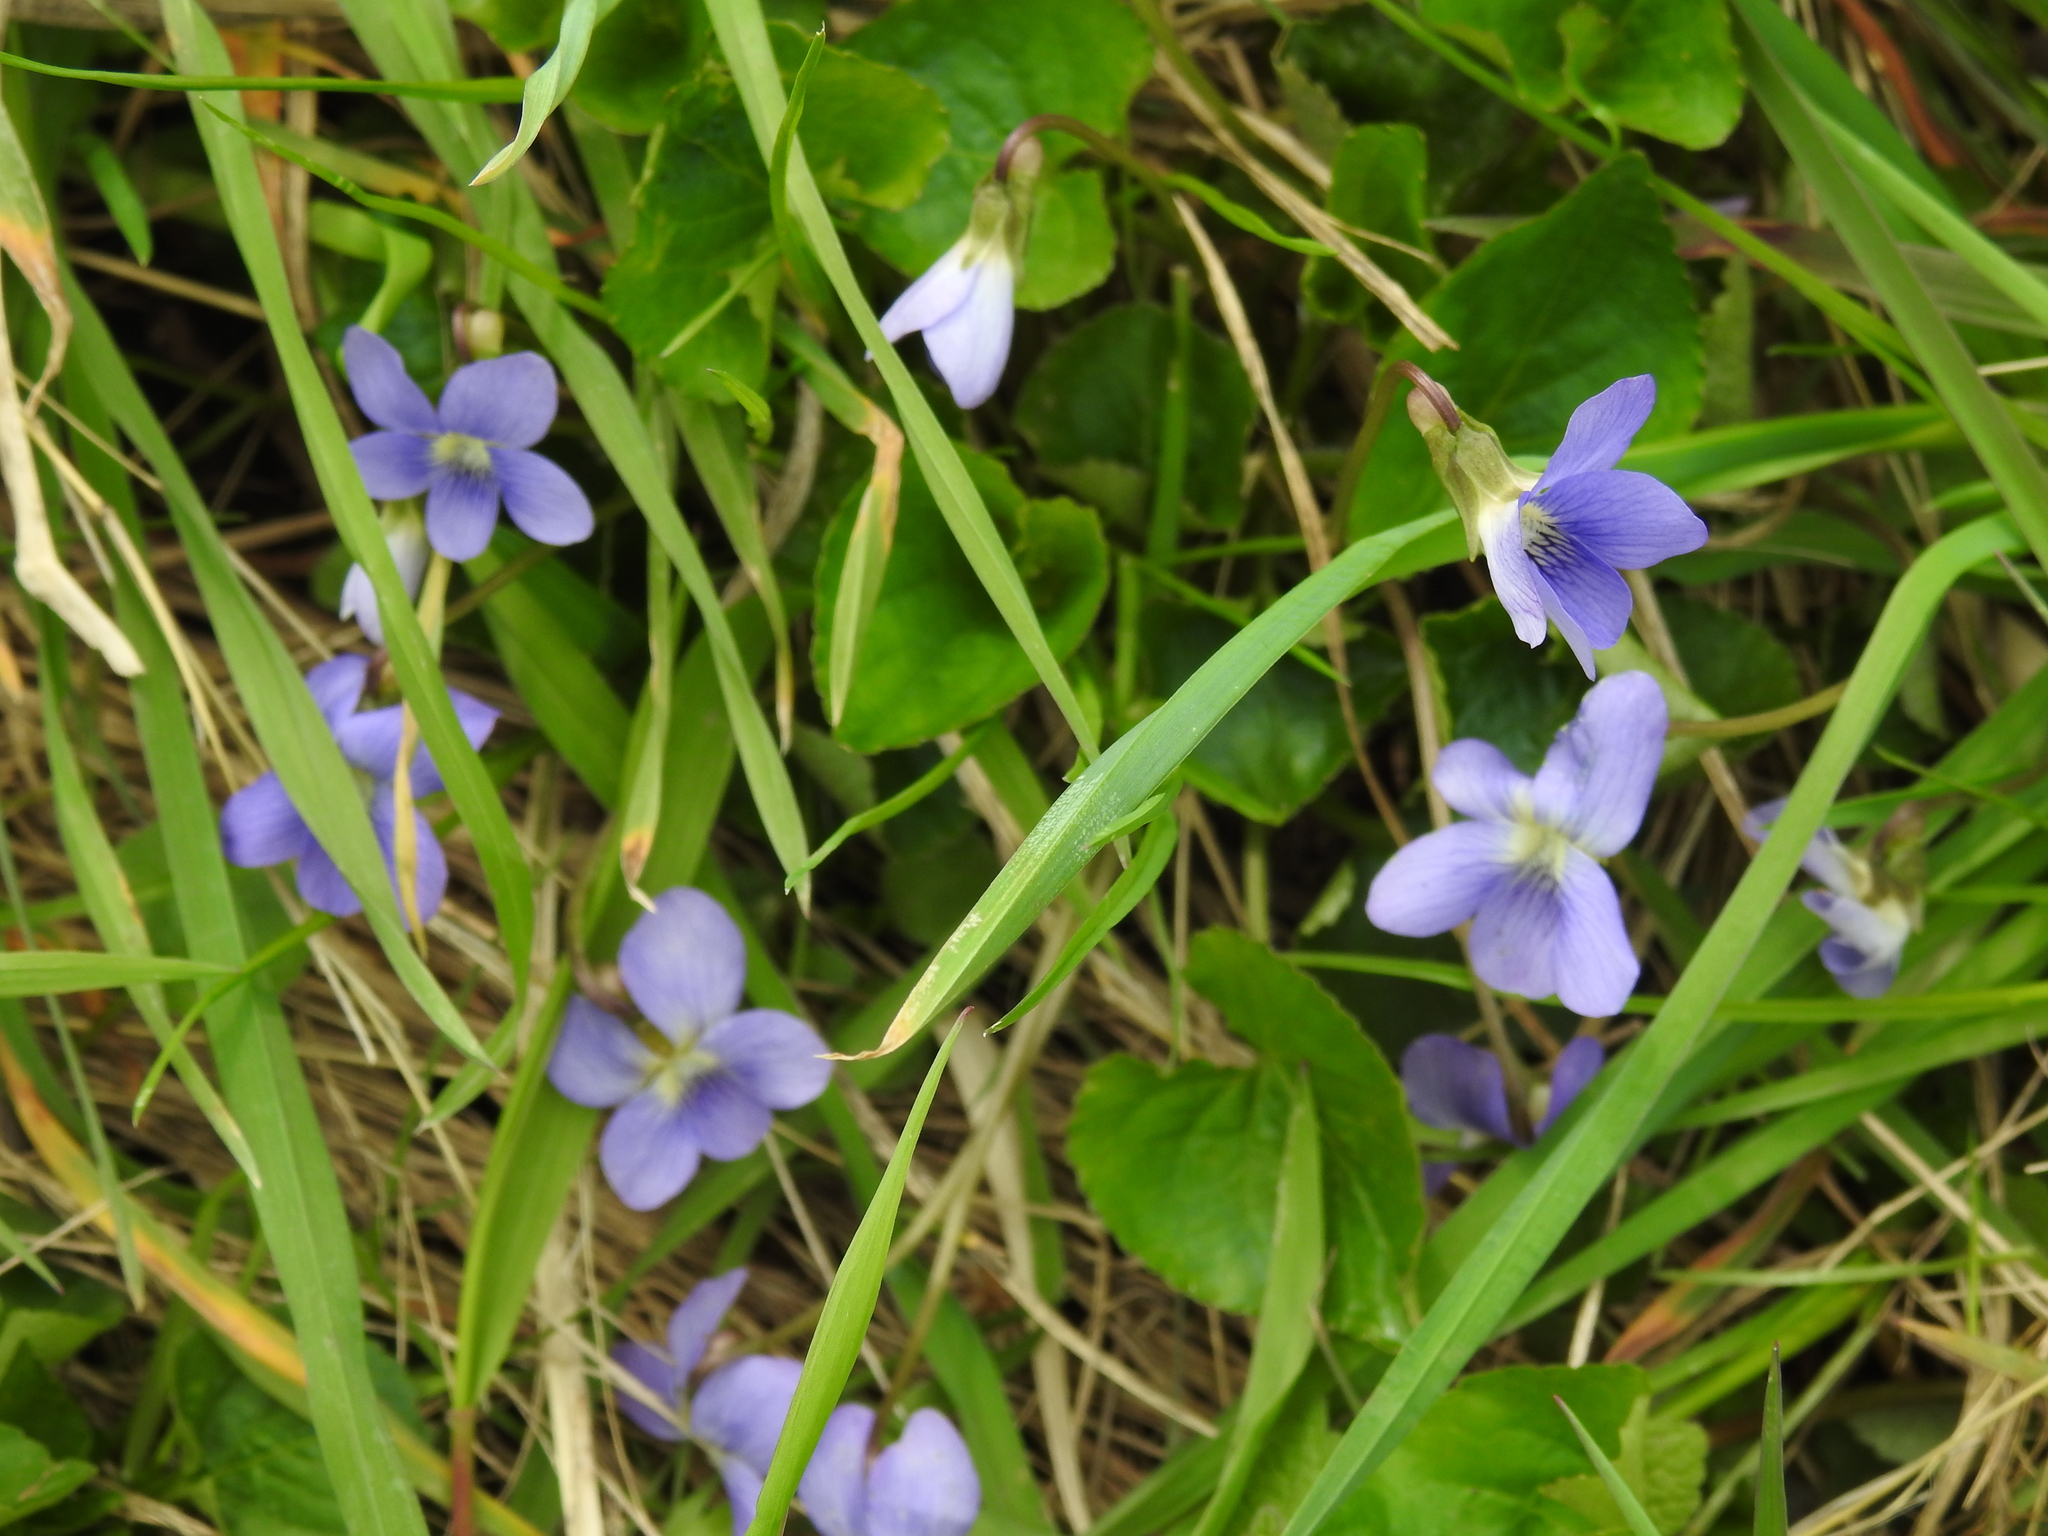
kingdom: Plantae
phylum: Tracheophyta
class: Magnoliopsida
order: Malpighiales
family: Violaceae
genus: Viola
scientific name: Viola sororia
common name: Dooryard violet
